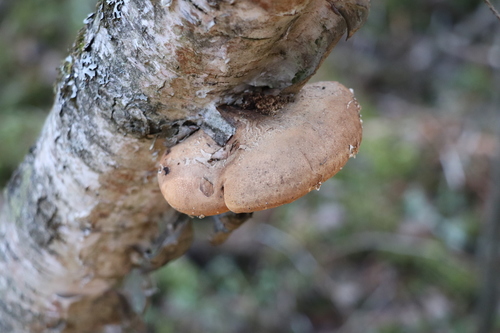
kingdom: Fungi
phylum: Basidiomycota
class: Agaricomycetes
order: Polyporales
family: Fomitopsidaceae
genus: Fomitopsis
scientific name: Fomitopsis betulina
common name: Birch polypore
